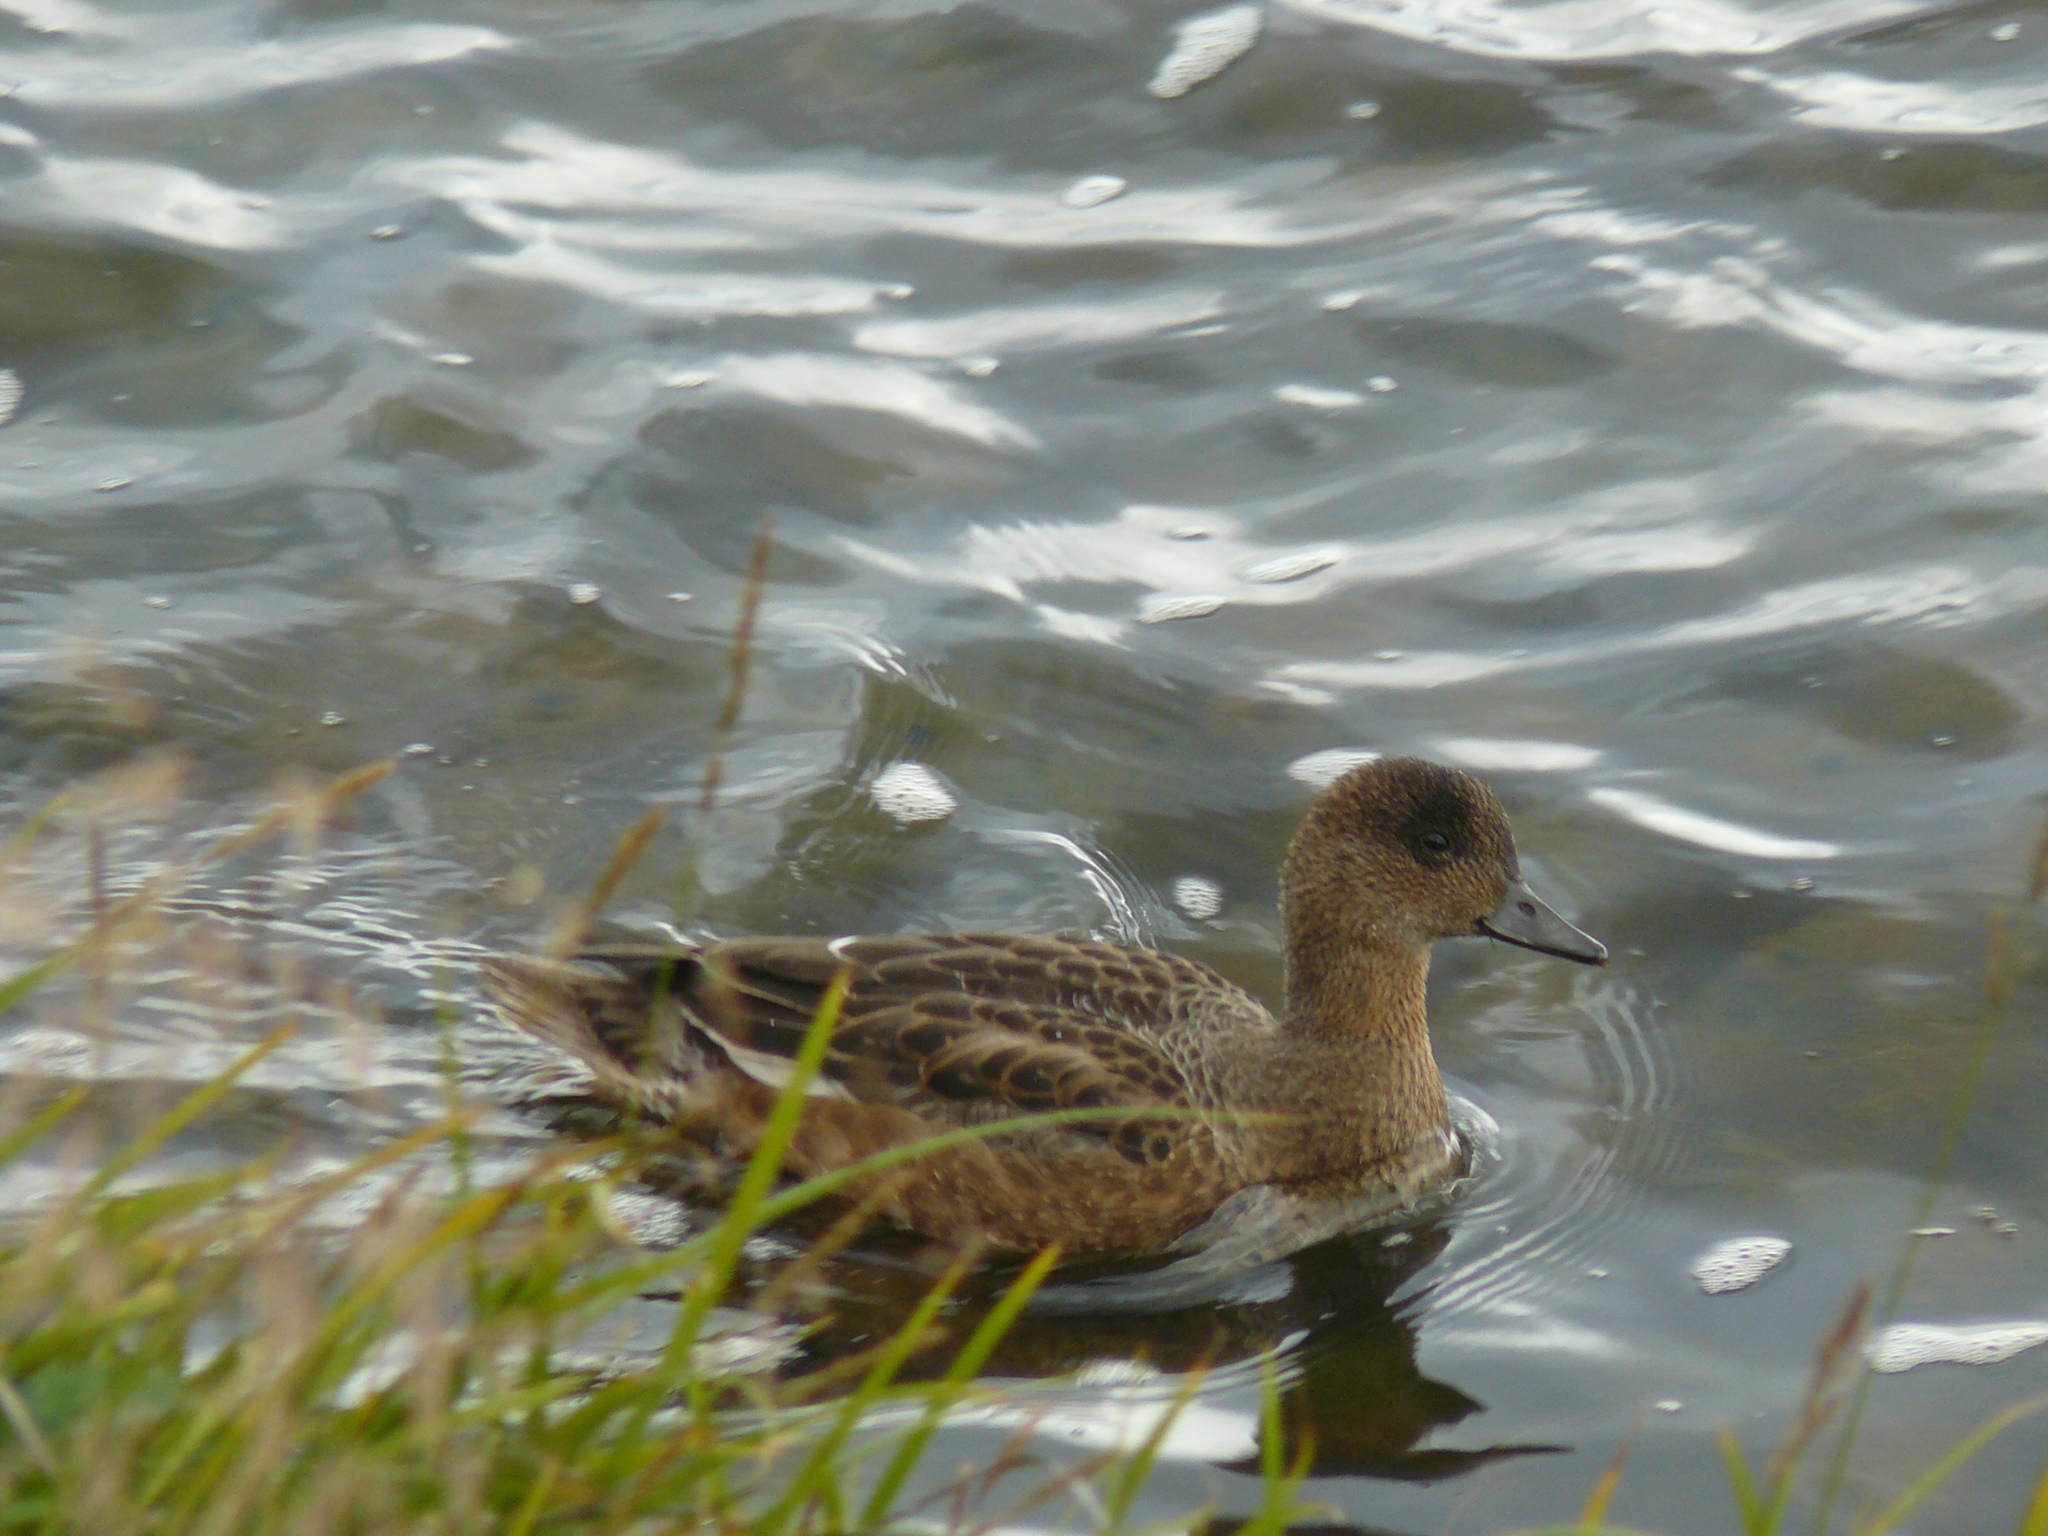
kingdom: Animalia
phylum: Chordata
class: Aves
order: Anseriformes
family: Anatidae
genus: Mareca
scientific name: Mareca penelope
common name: Eurasian wigeon
